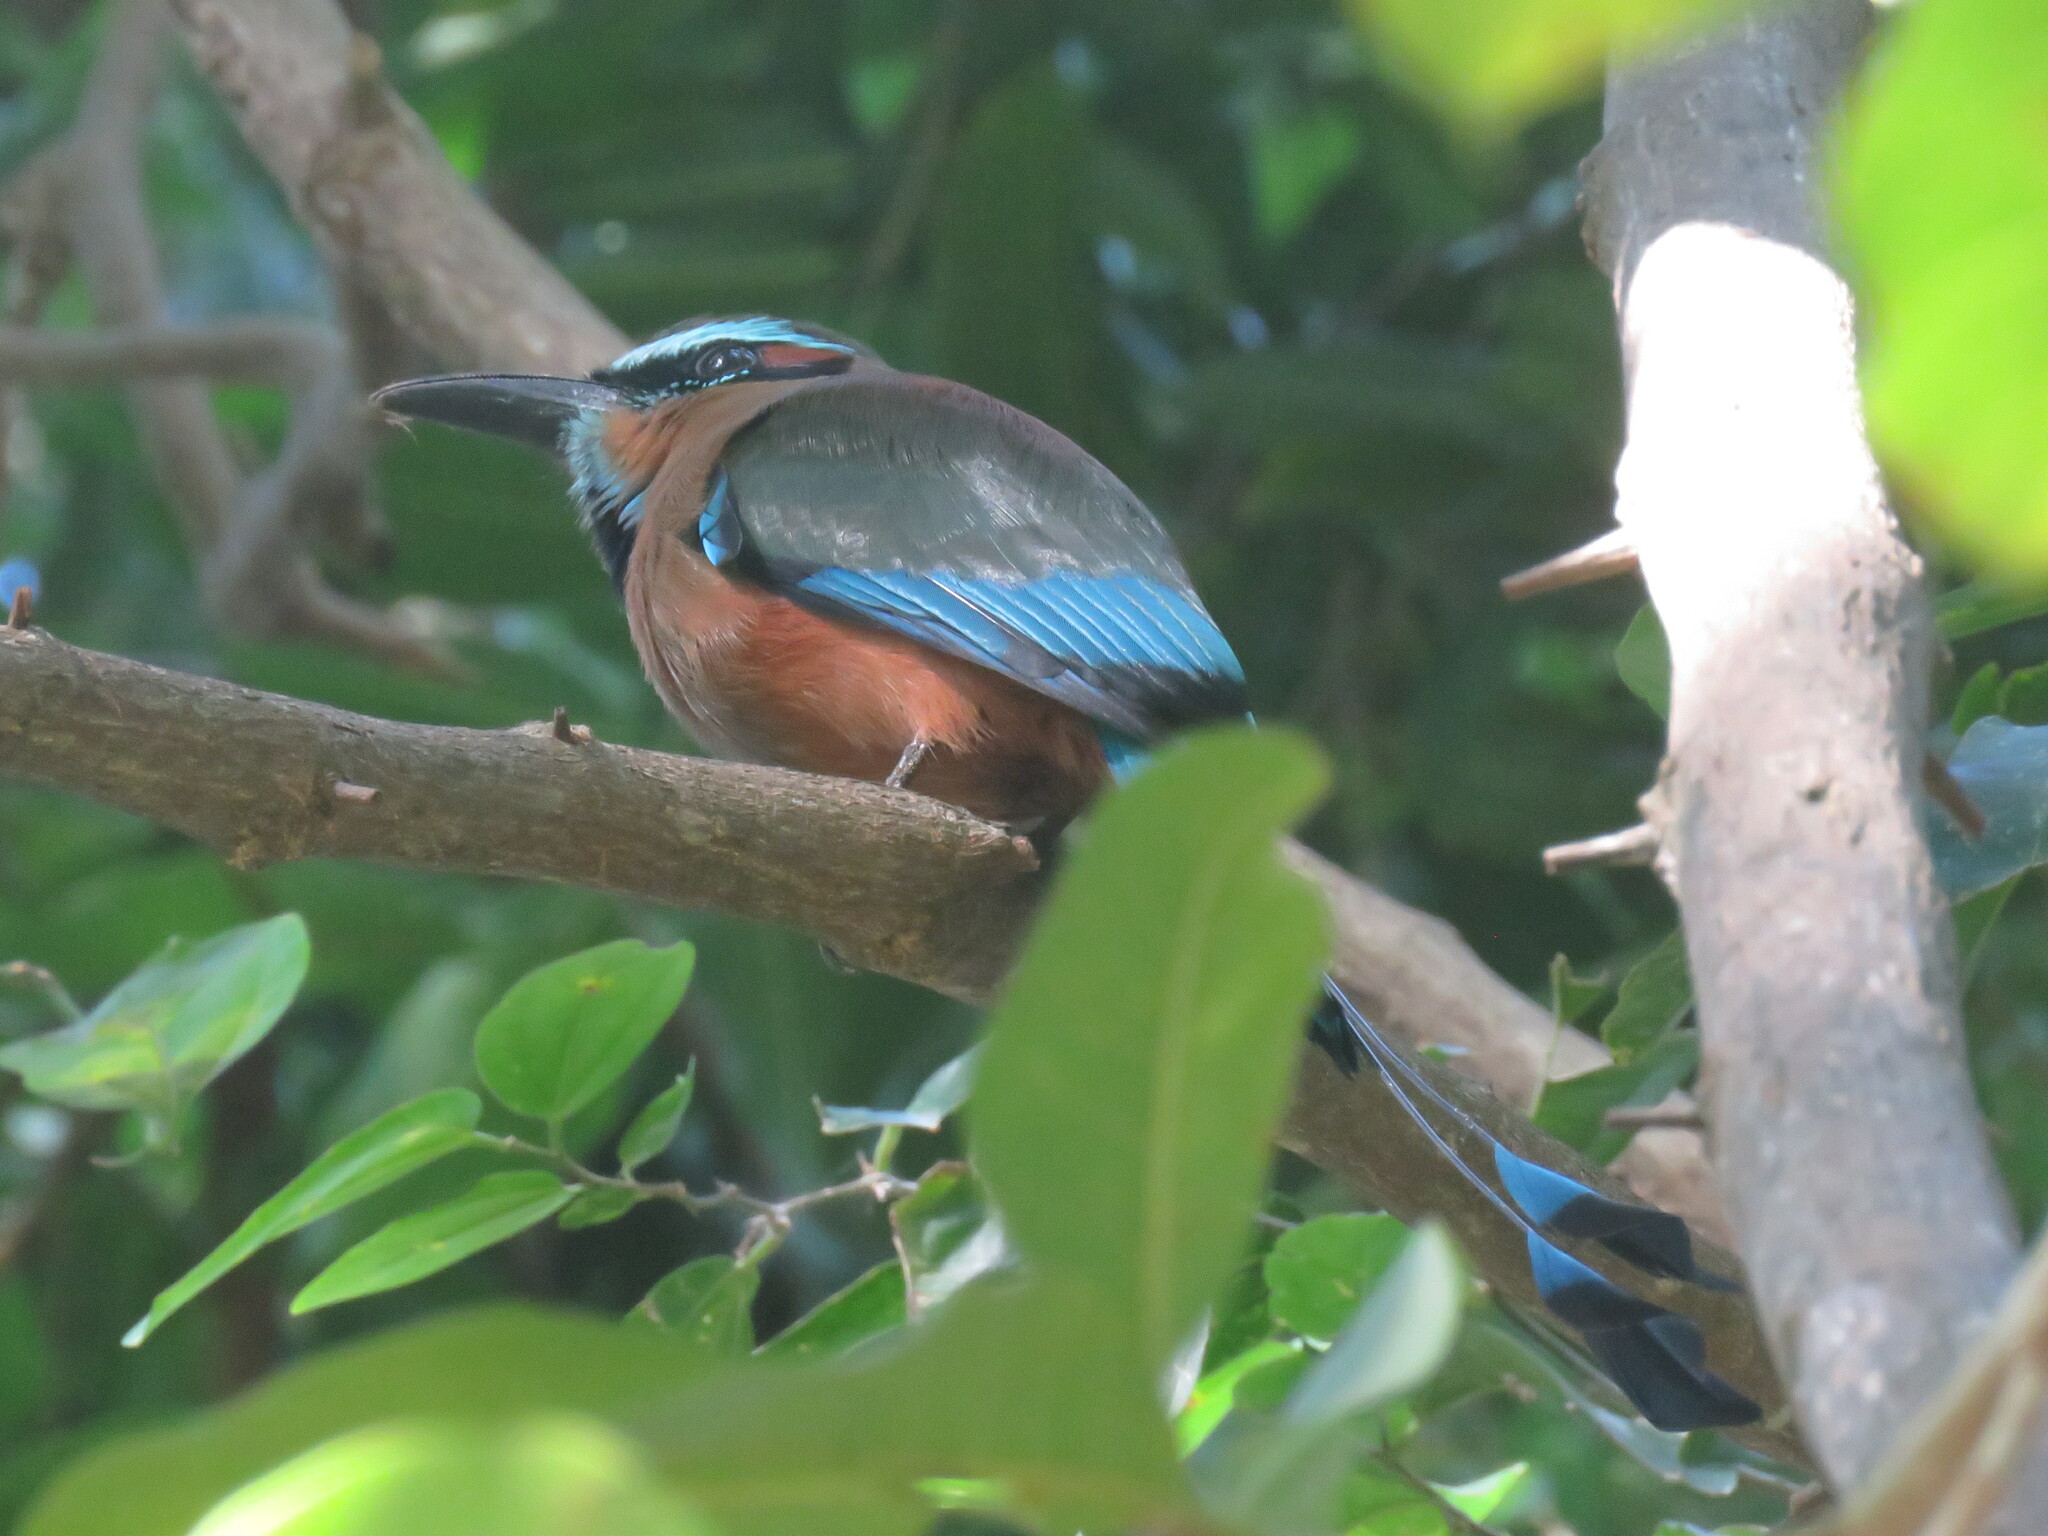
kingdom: Animalia
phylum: Chordata
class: Aves
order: Coraciiformes
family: Momotidae
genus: Eumomota
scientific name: Eumomota superciliosa
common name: Turquoise-browed motmot
